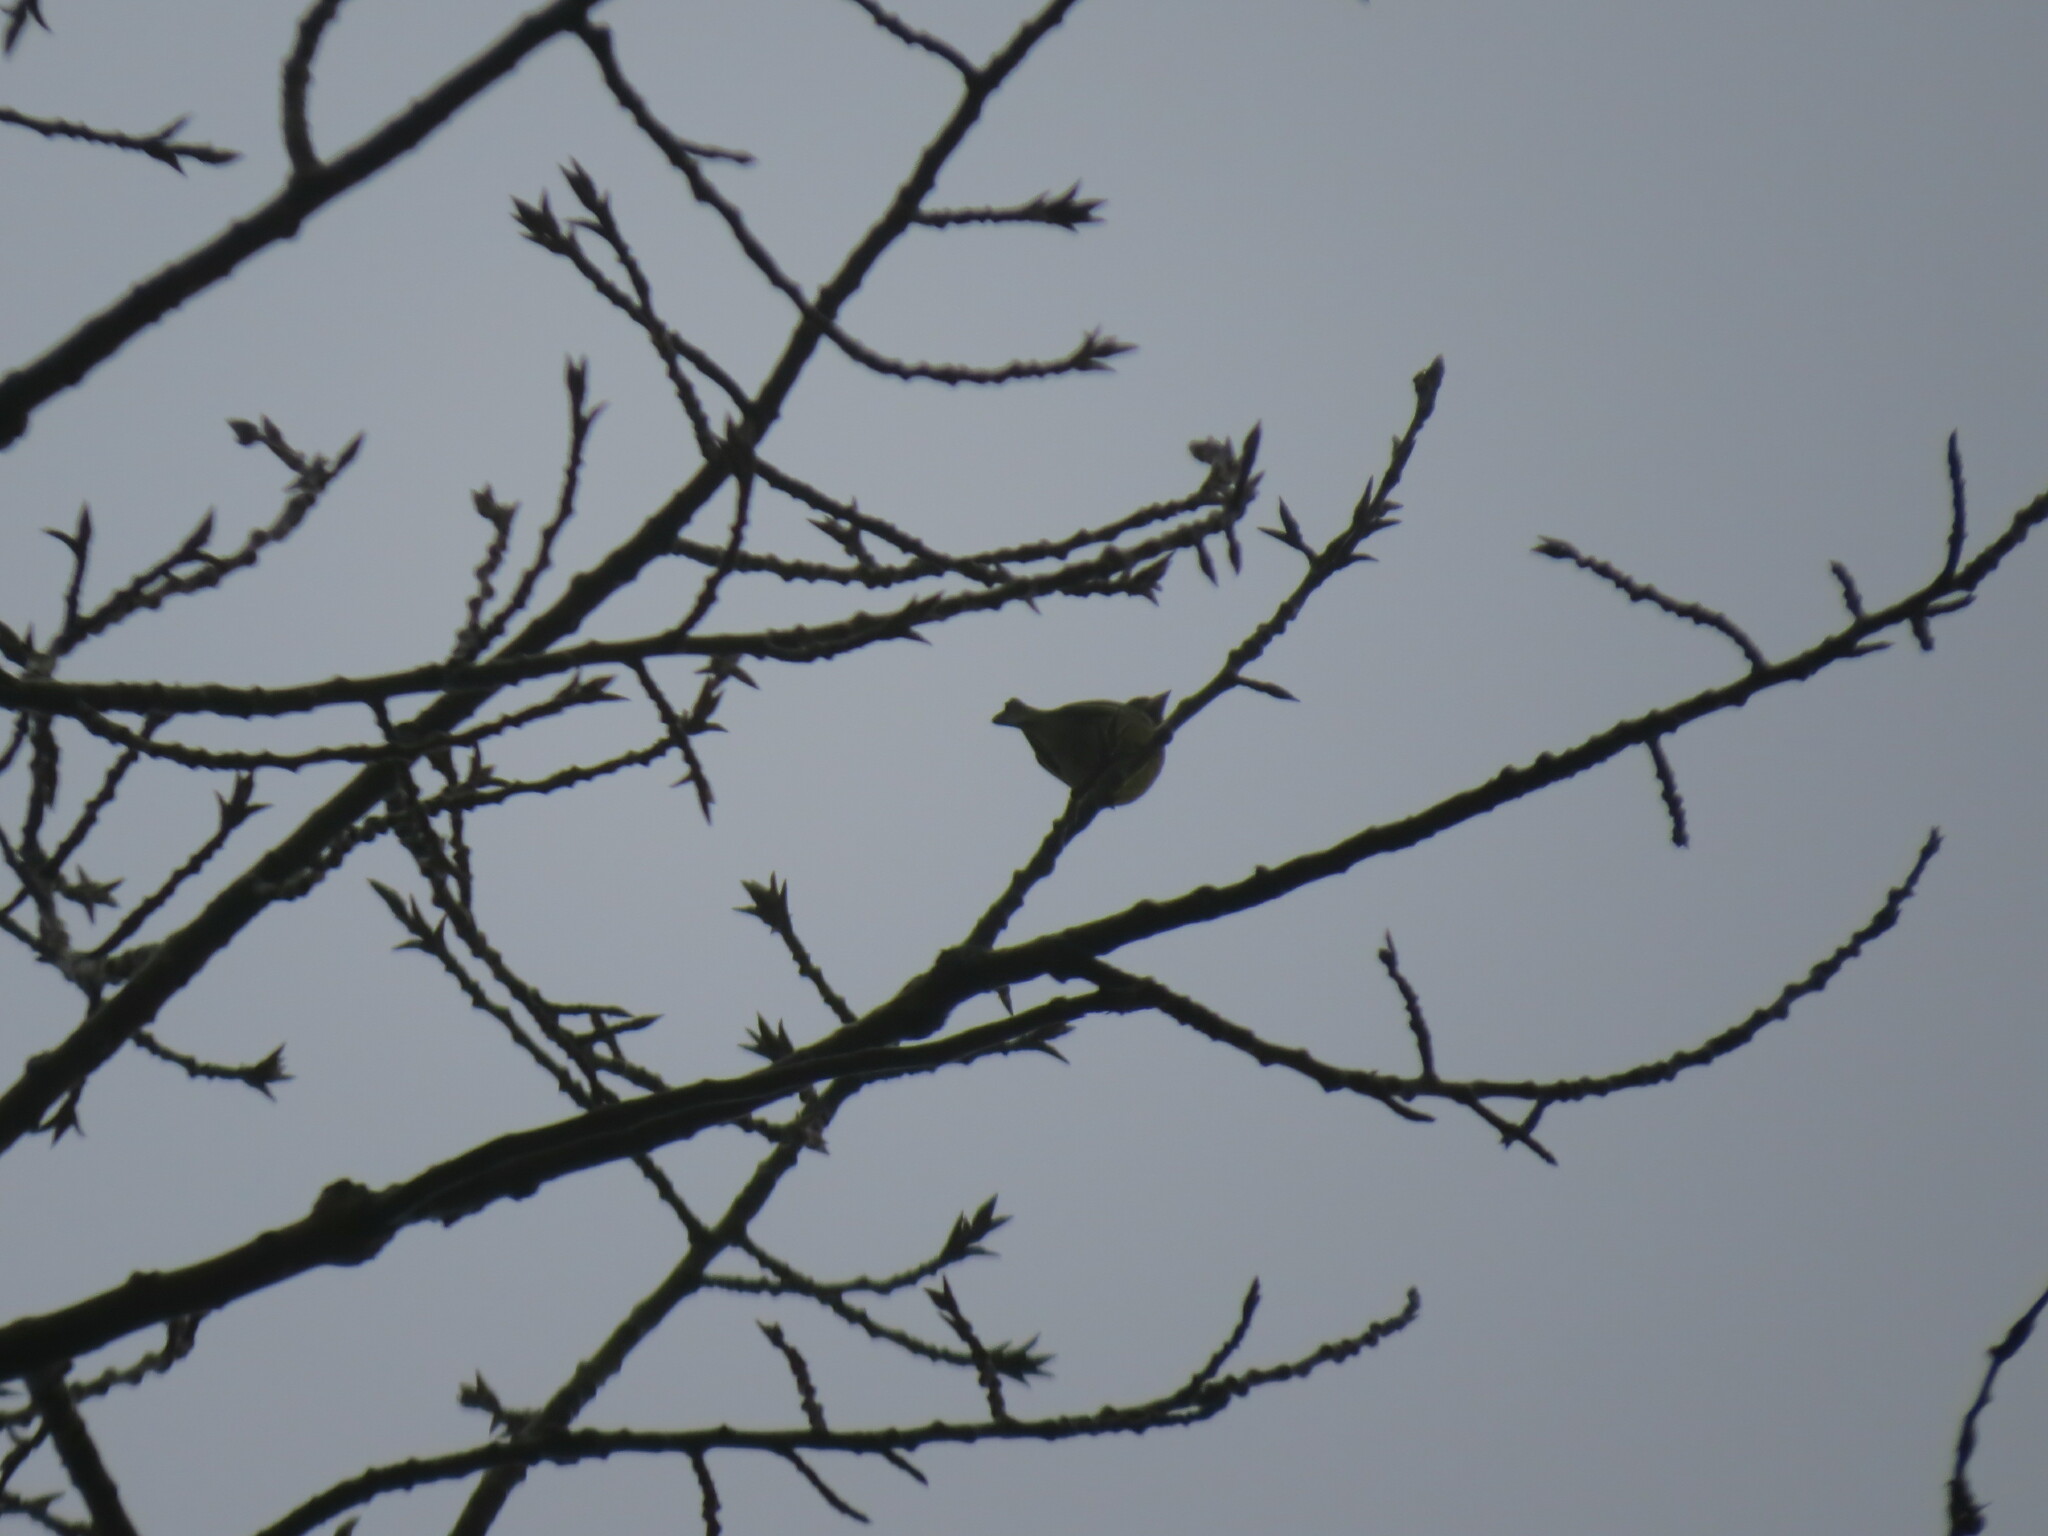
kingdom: Plantae
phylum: Tracheophyta
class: Liliopsida
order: Poales
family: Poaceae
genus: Chloris
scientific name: Chloris chloris
